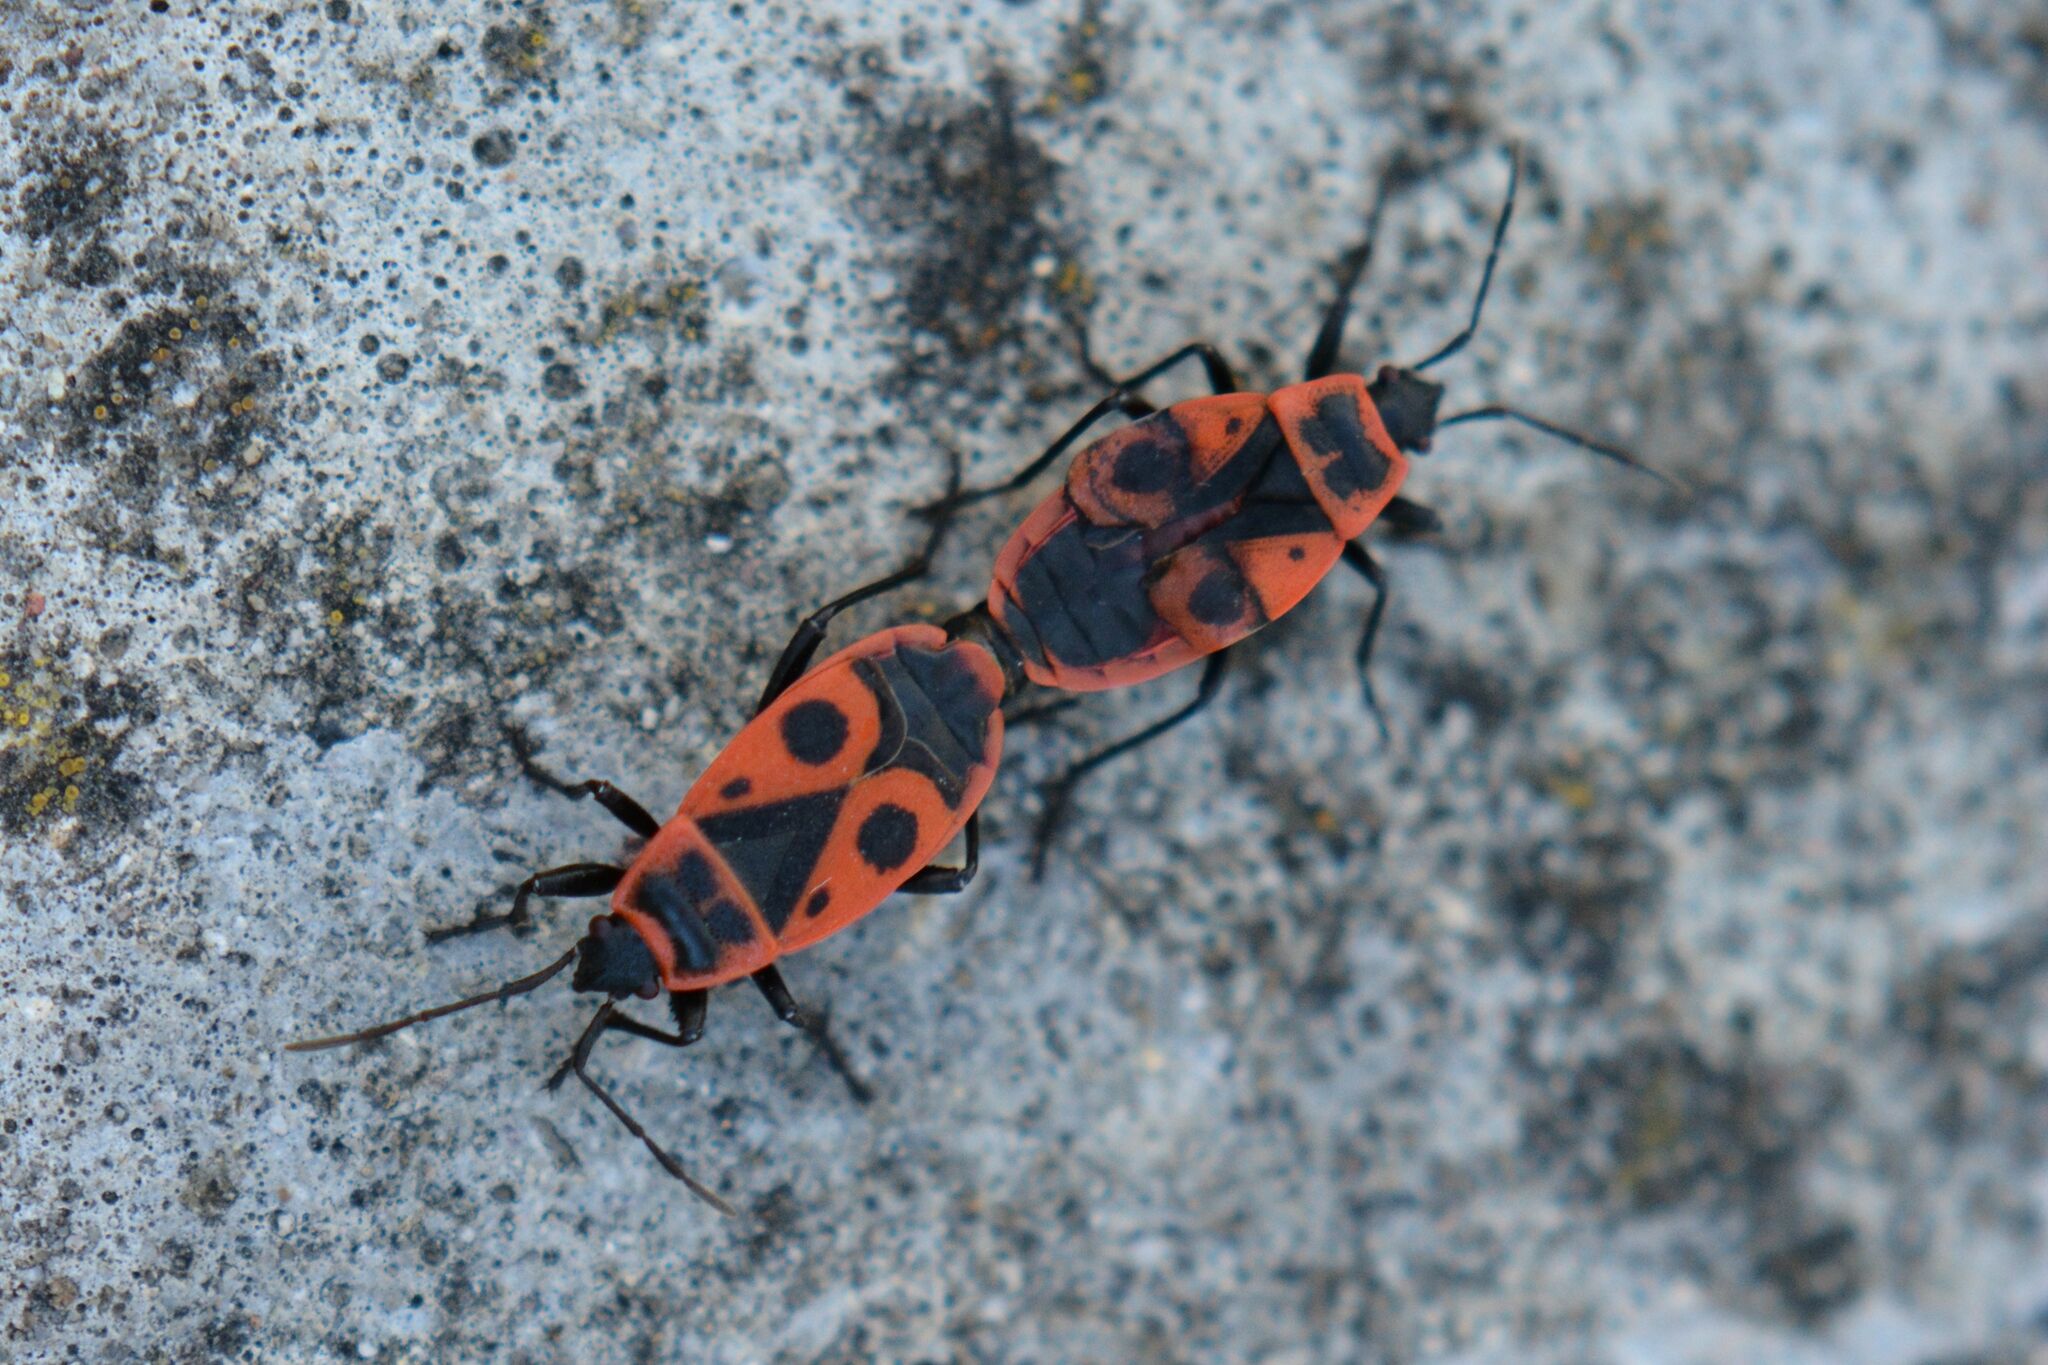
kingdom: Animalia
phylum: Arthropoda
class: Insecta
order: Hemiptera
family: Pyrrhocoridae
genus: Pyrrhocoris
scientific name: Pyrrhocoris apterus
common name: Firebug
